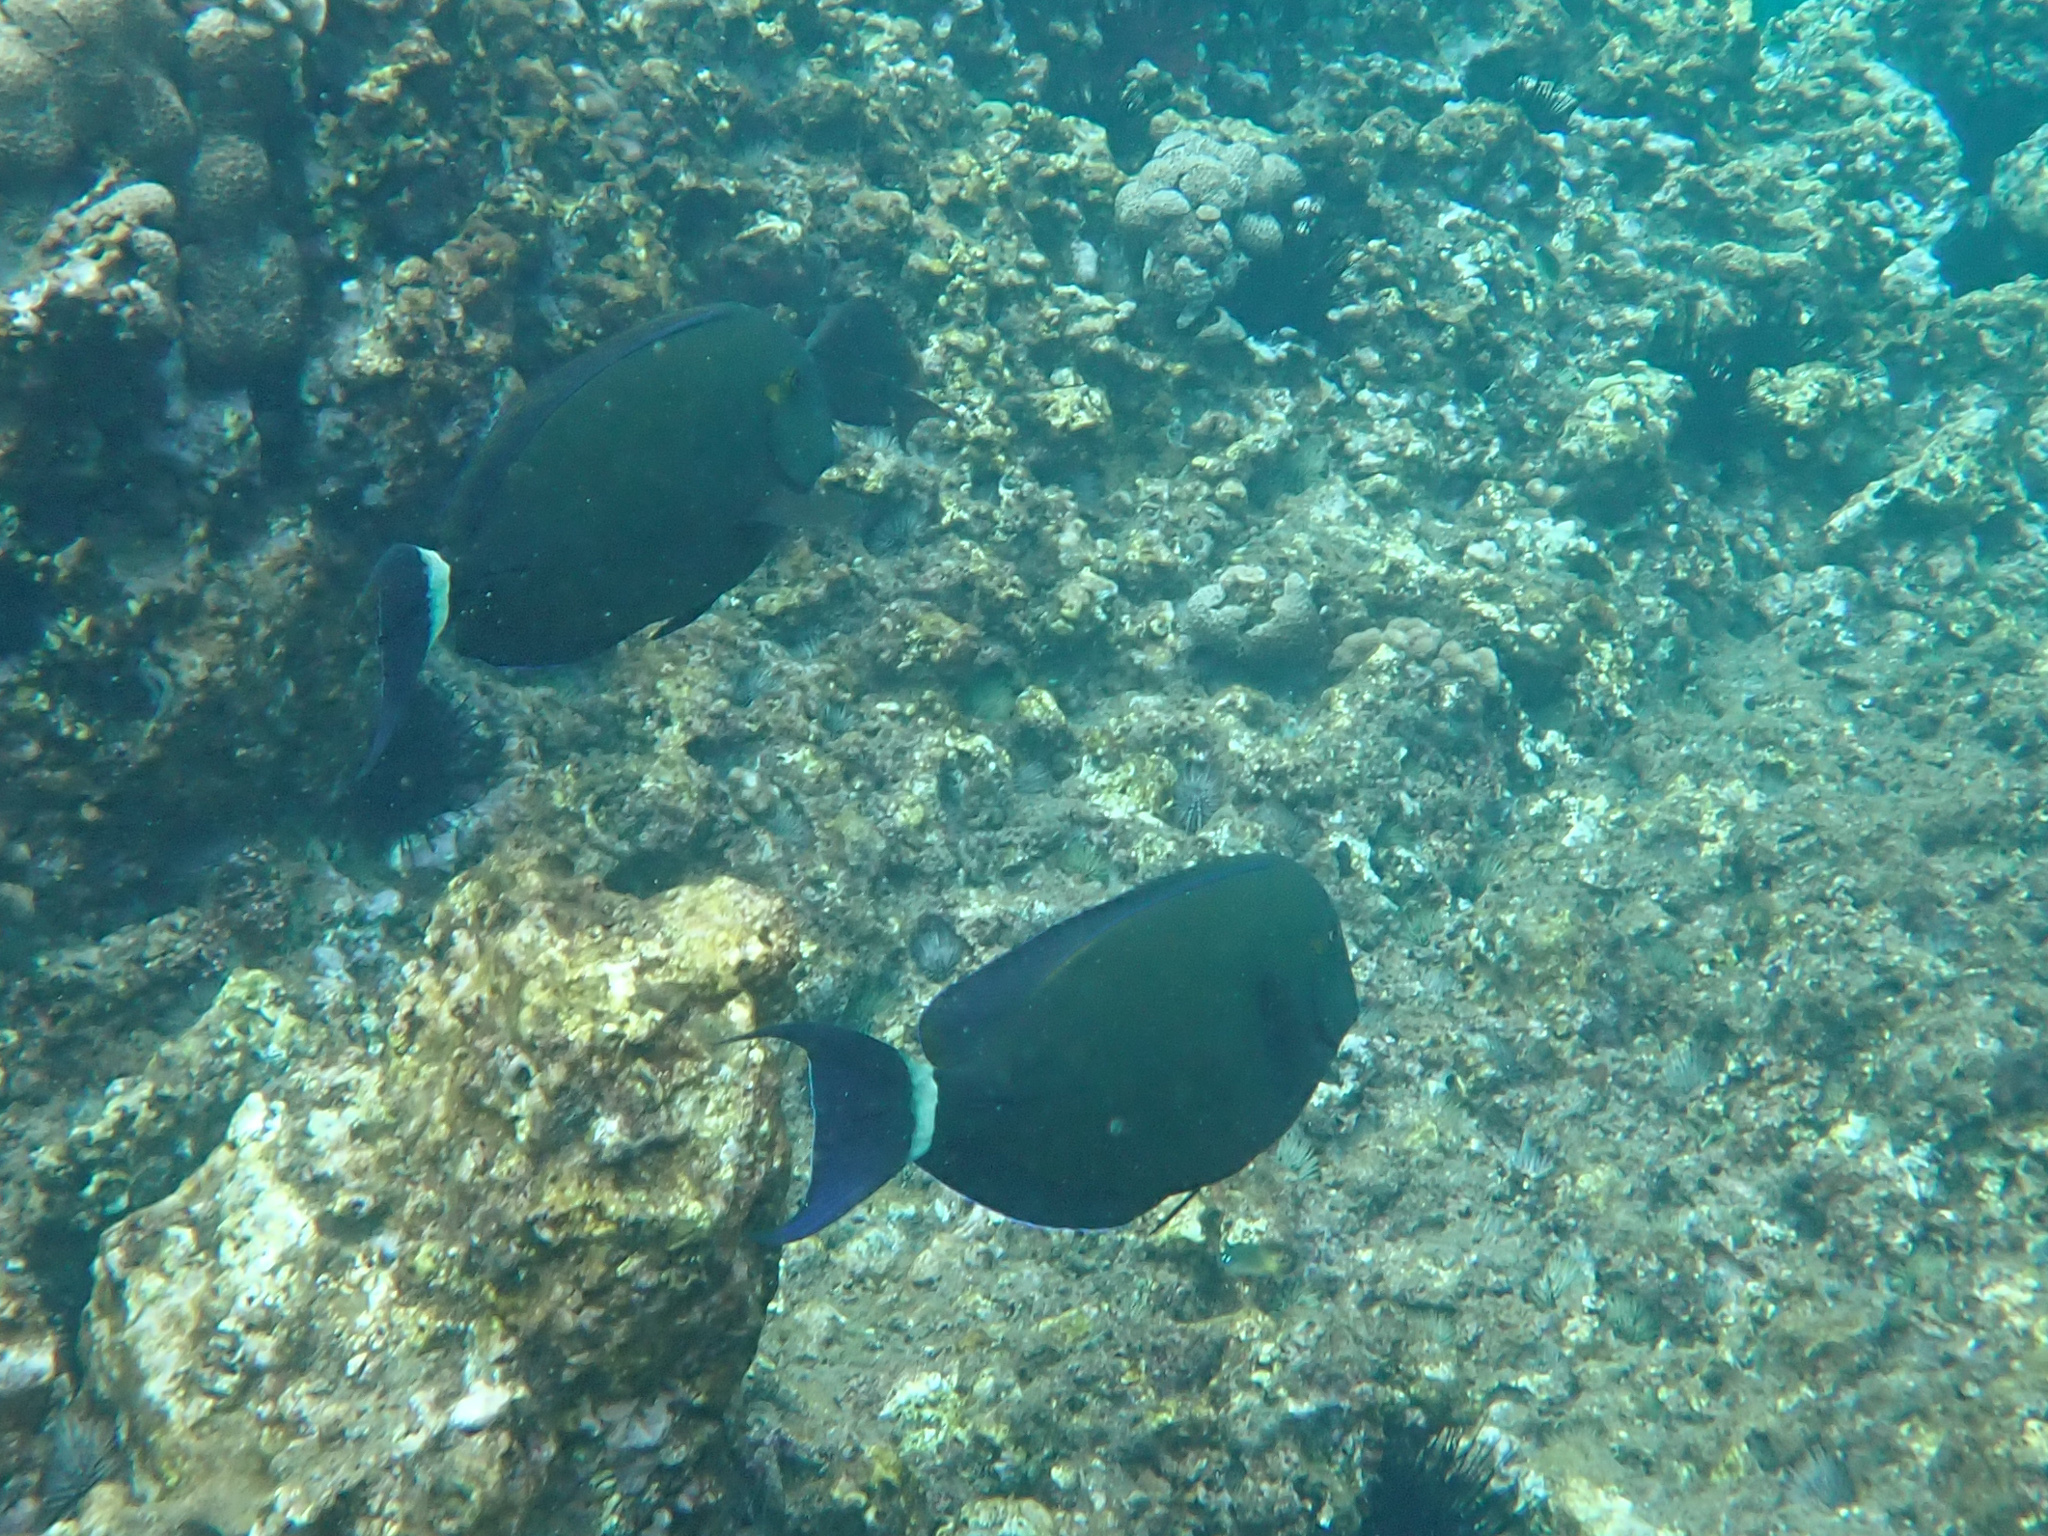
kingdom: Animalia
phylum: Chordata
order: Perciformes
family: Acanthuridae
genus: Acanthurus
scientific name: Acanthurus blochii
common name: Blue-banded pualu
